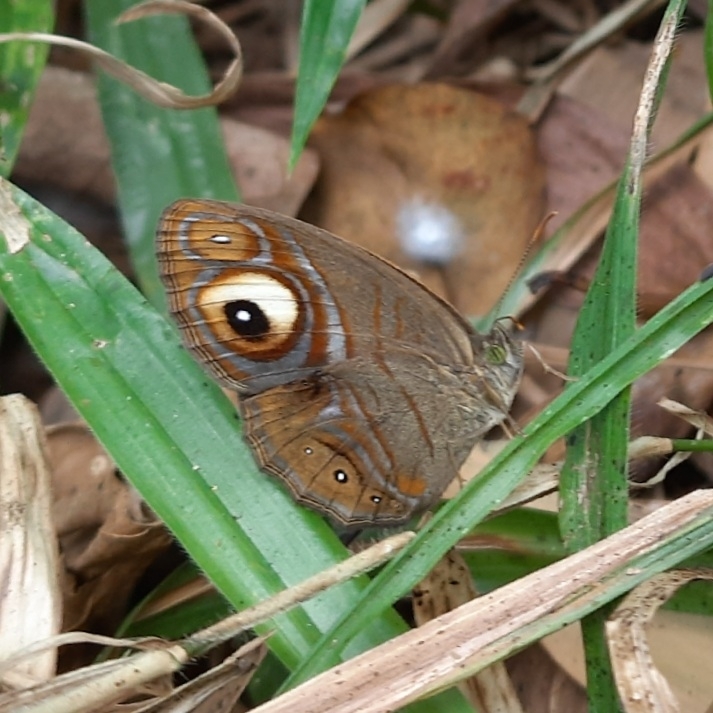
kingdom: Animalia
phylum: Arthropoda
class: Insecta
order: Lepidoptera
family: Nymphalidae
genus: Mycalesis
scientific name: Mycalesis patnia
